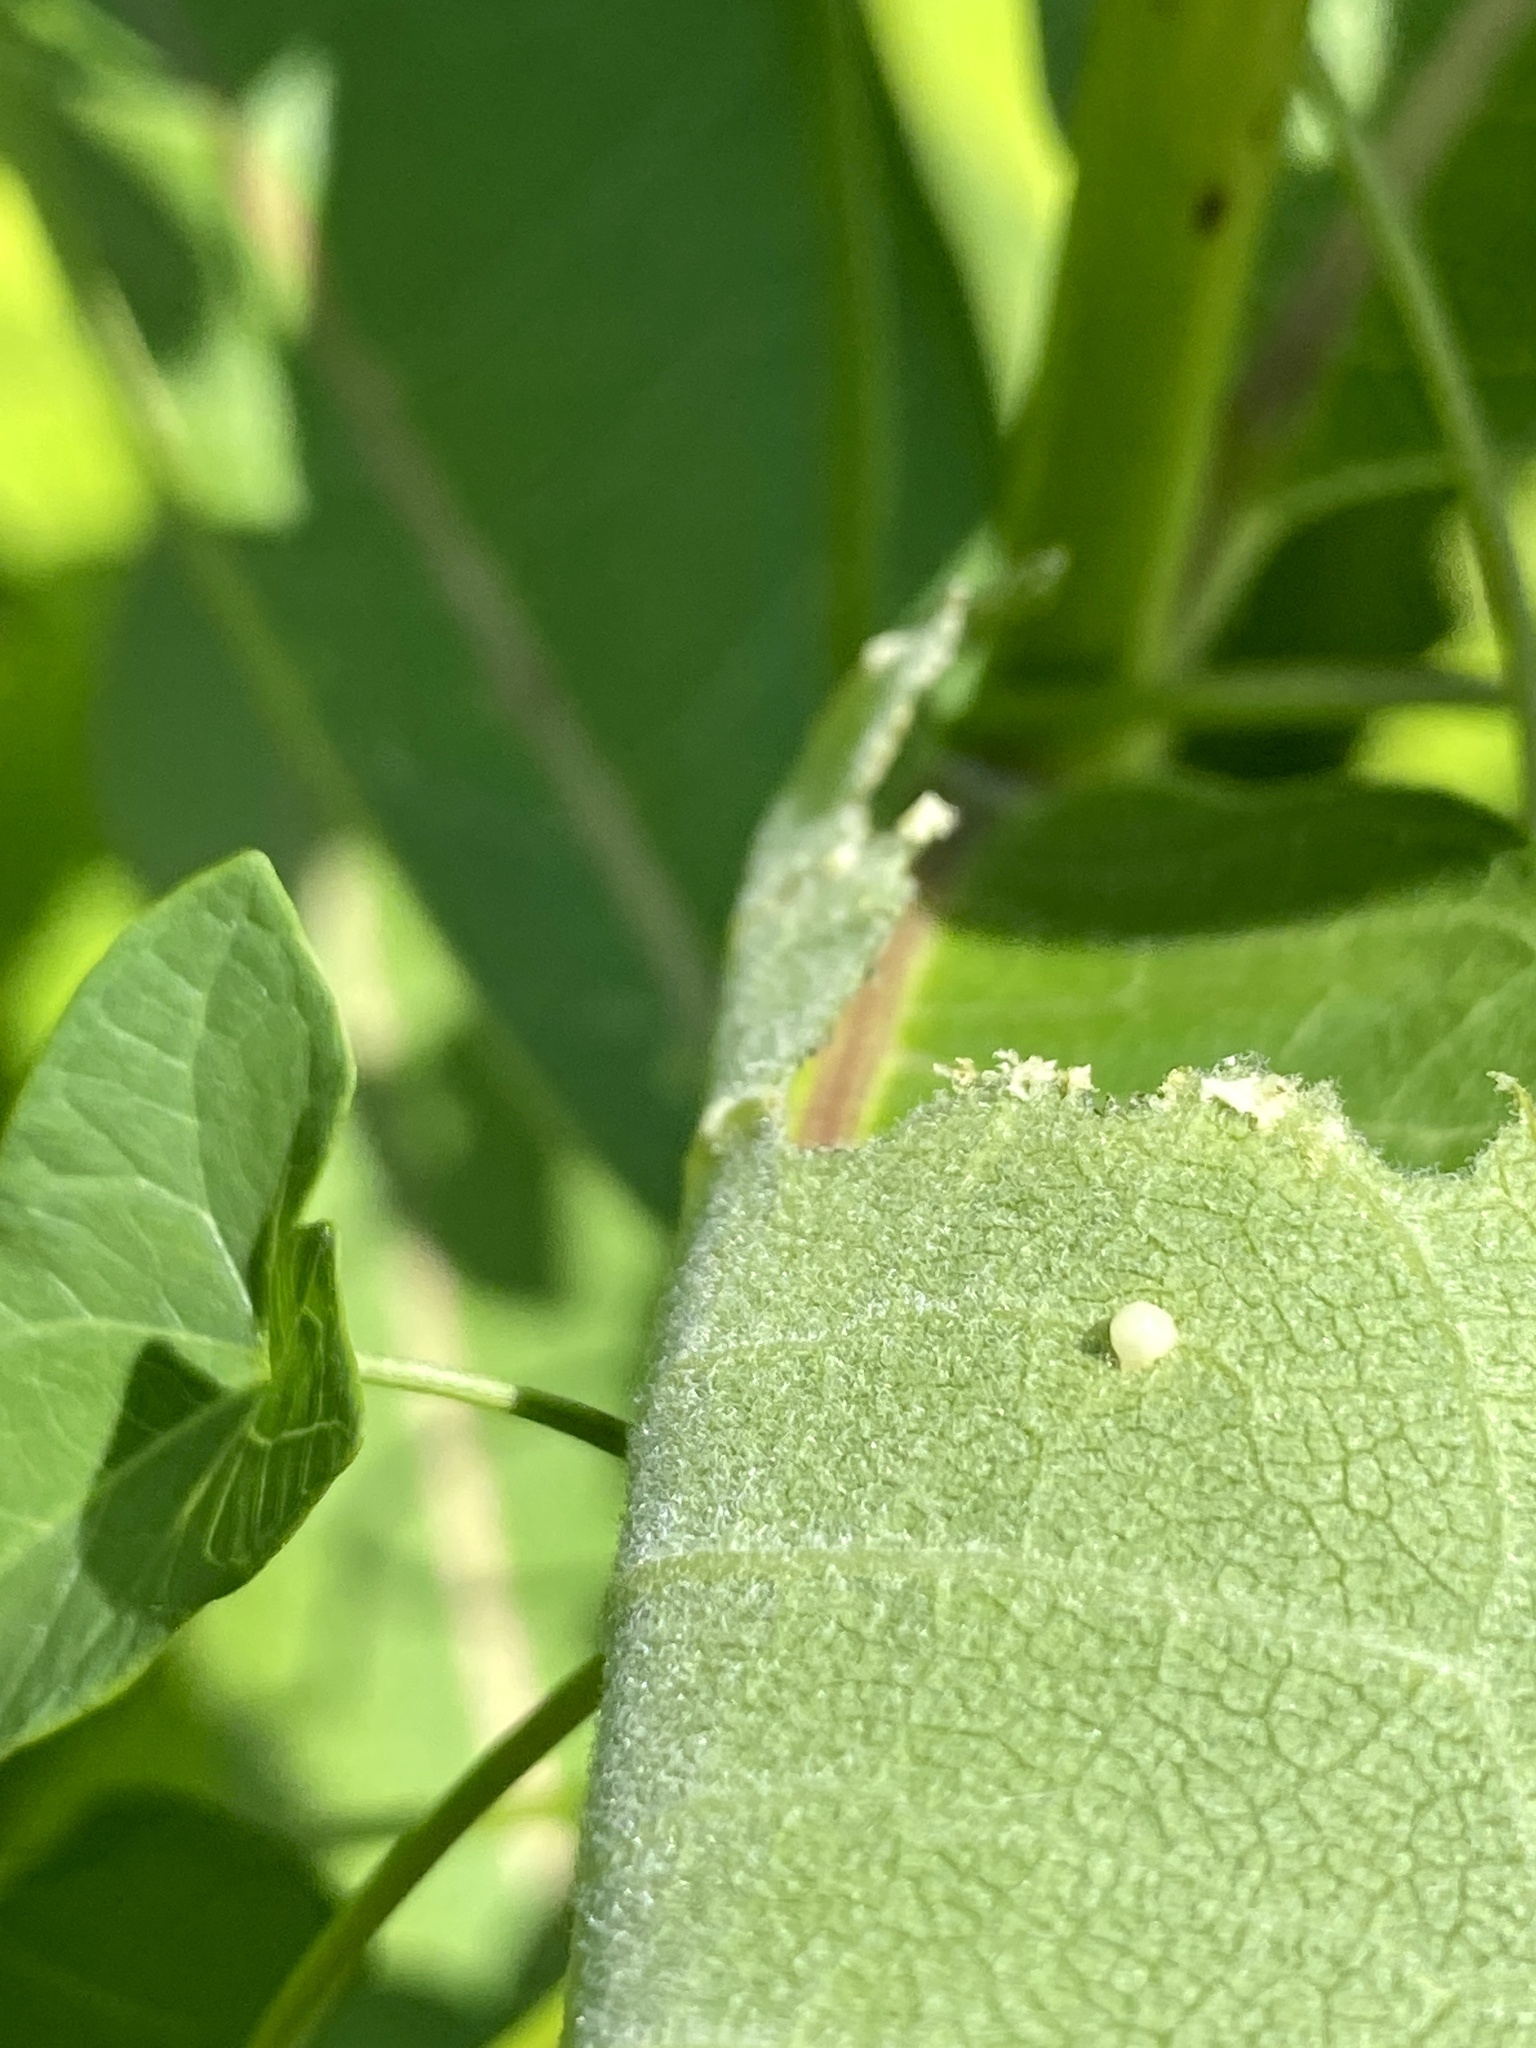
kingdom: Animalia
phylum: Arthropoda
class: Insecta
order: Lepidoptera
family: Nymphalidae
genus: Danaus
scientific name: Danaus plexippus
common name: Monarch
